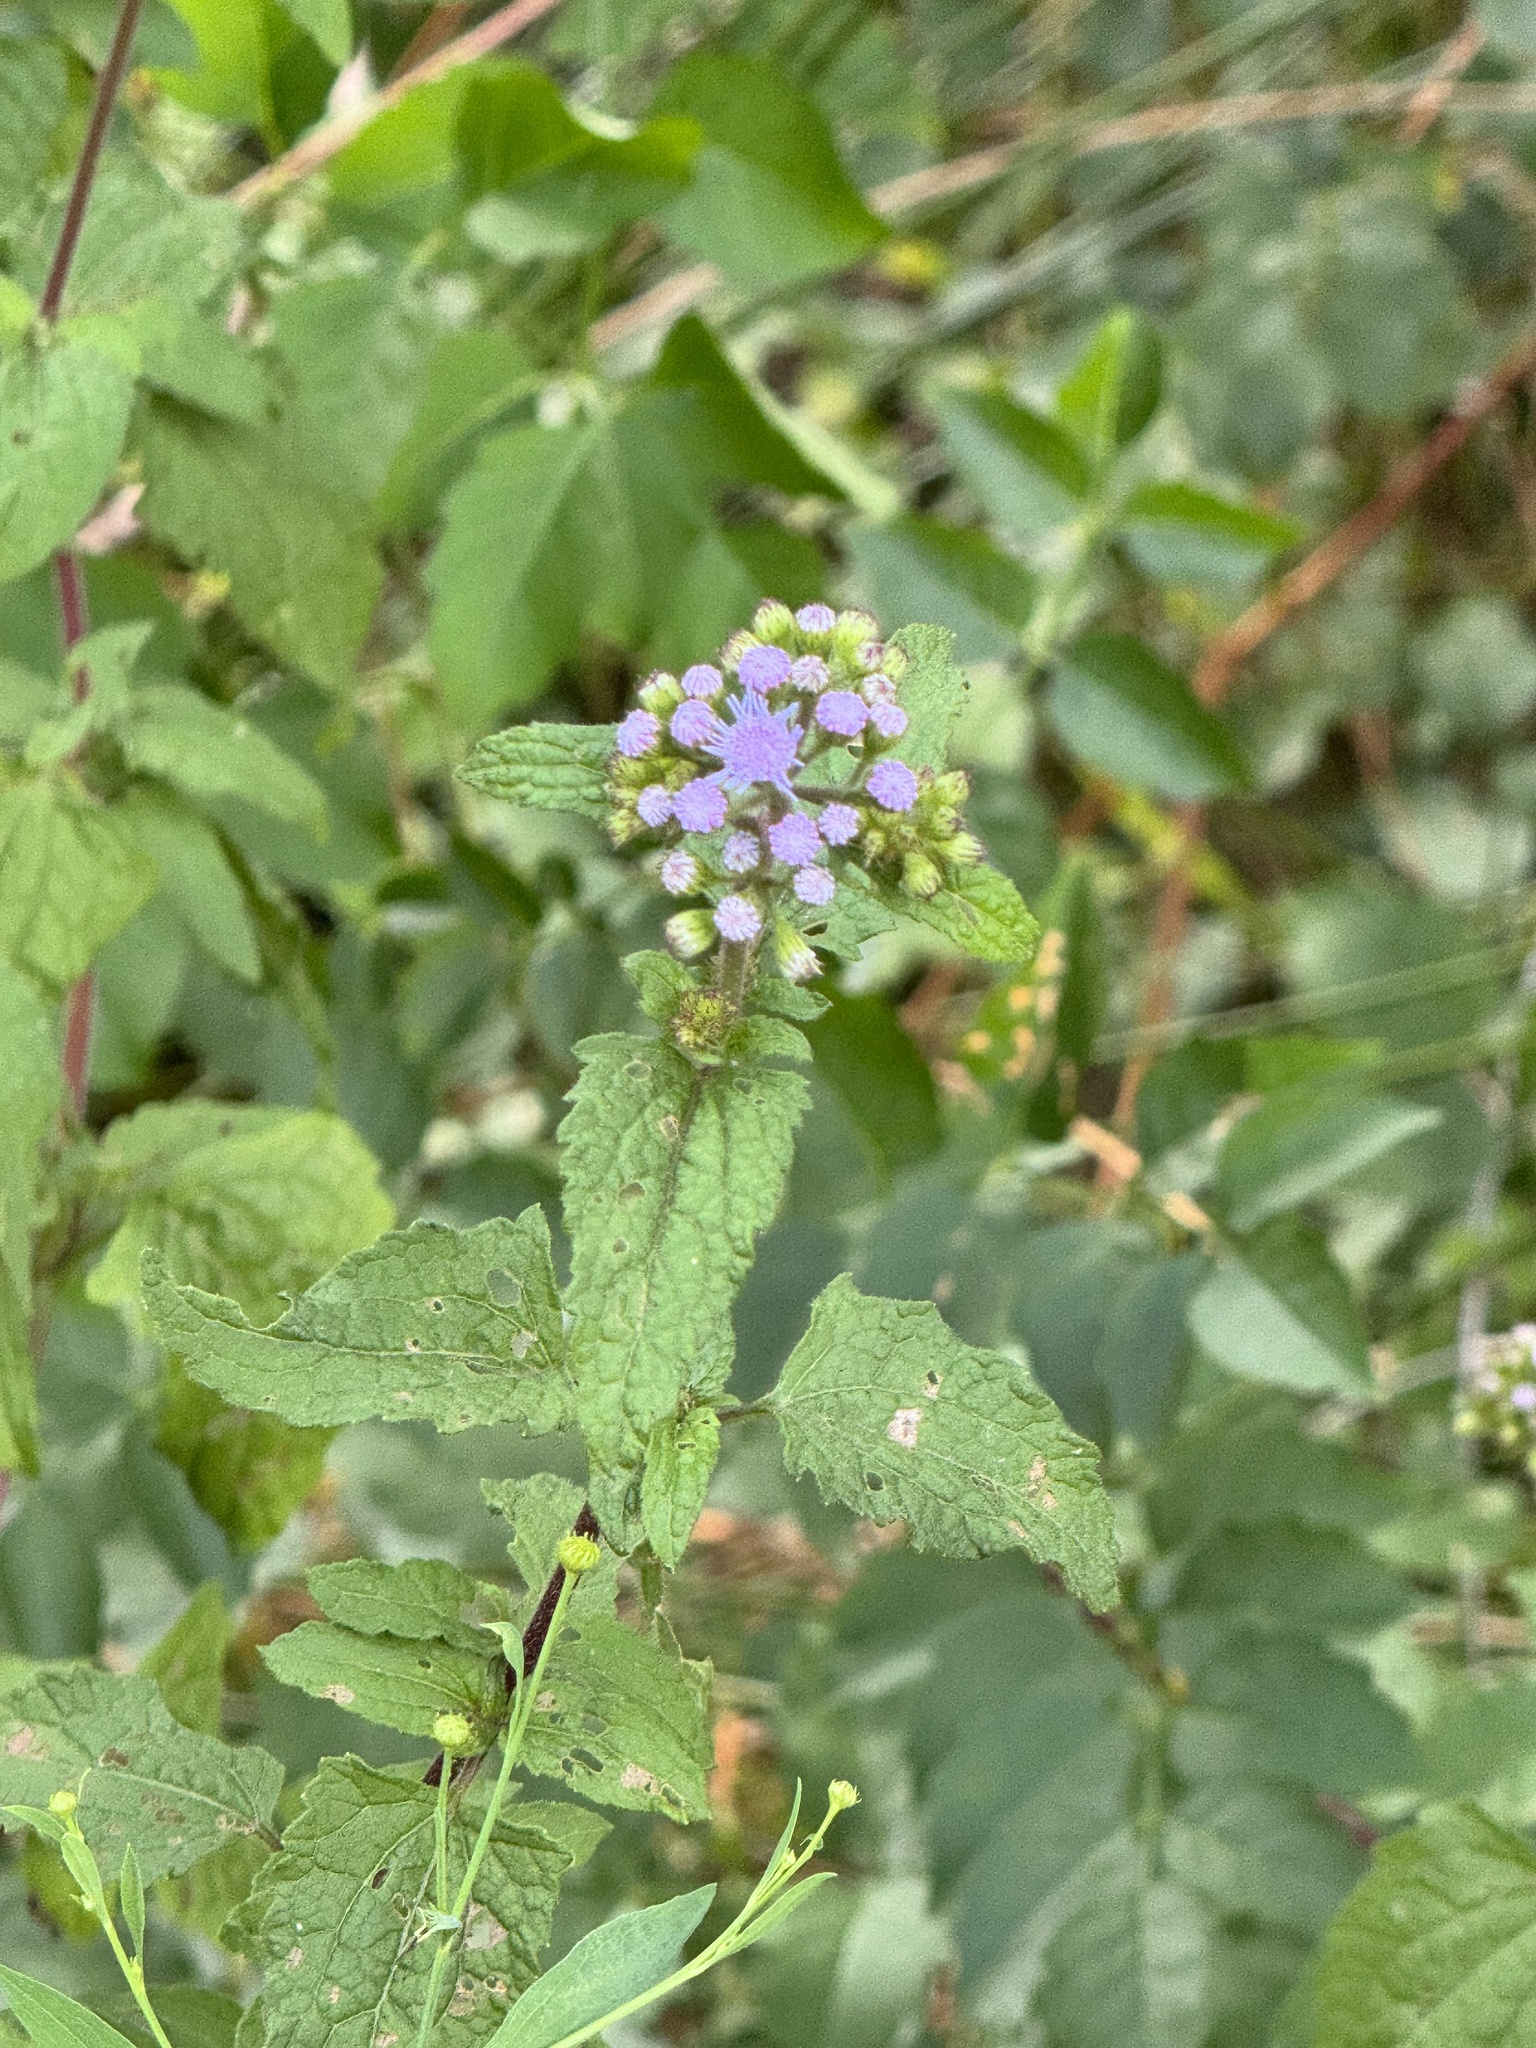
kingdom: Plantae
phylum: Tracheophyta
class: Magnoliopsida
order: Asterales
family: Asteraceae
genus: Conoclinium
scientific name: Conoclinium coelestinum
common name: Blue mistflower
